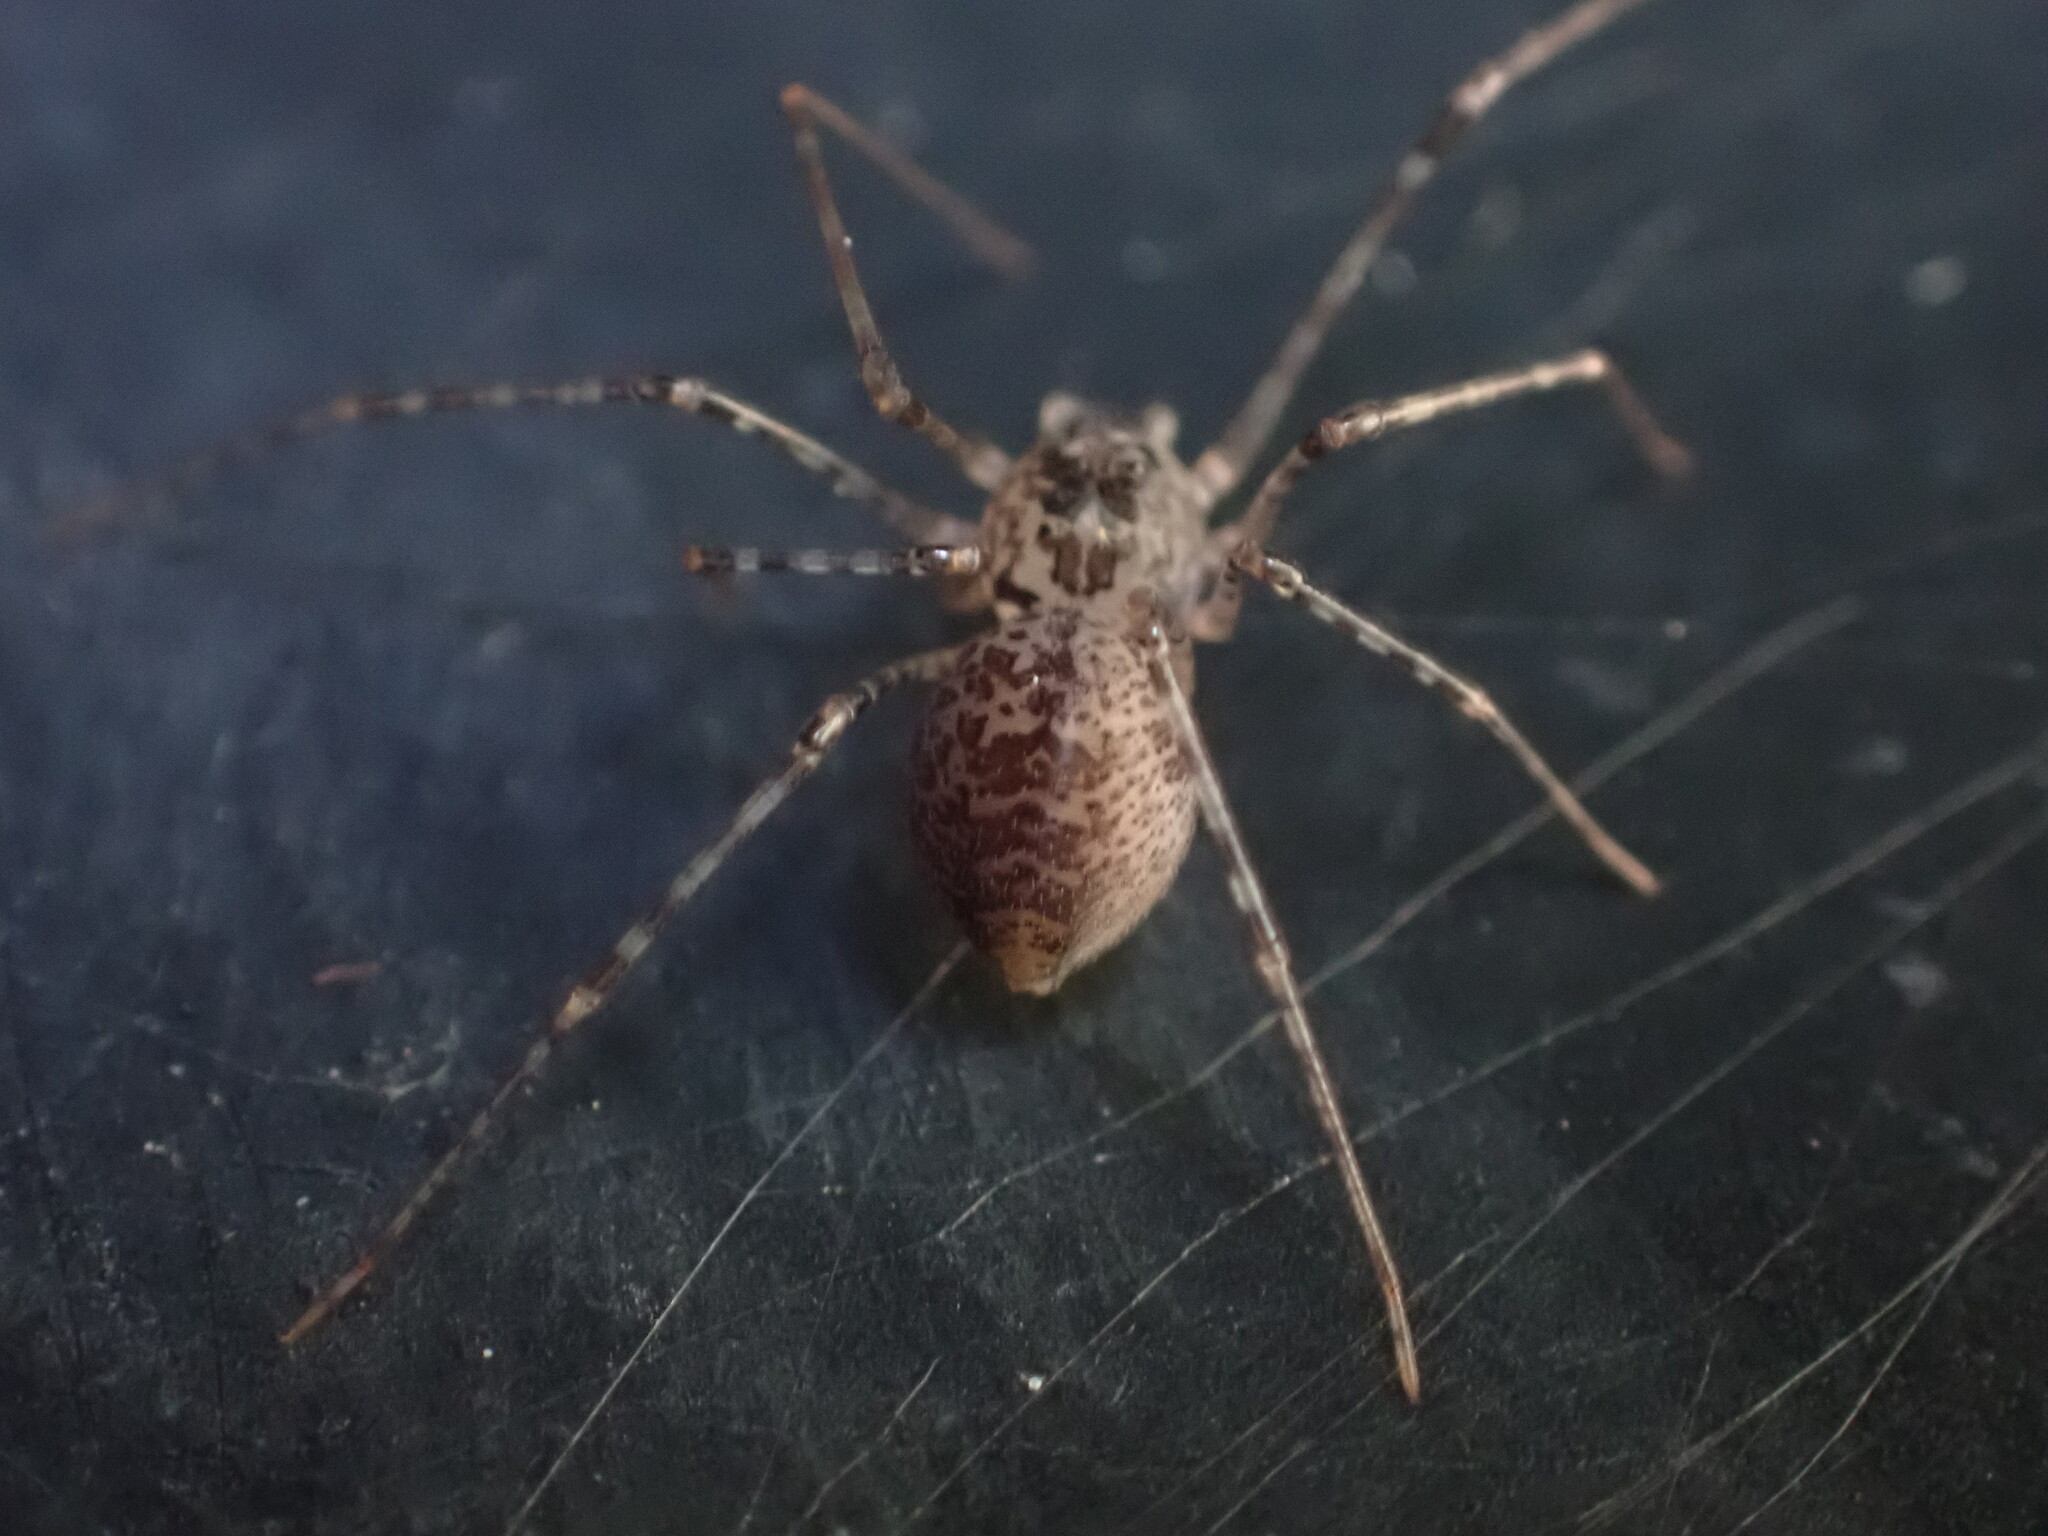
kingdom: Animalia
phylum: Arthropoda
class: Arachnida
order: Araneae
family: Scytodidae
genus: Scytodes
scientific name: Scytodes globula
